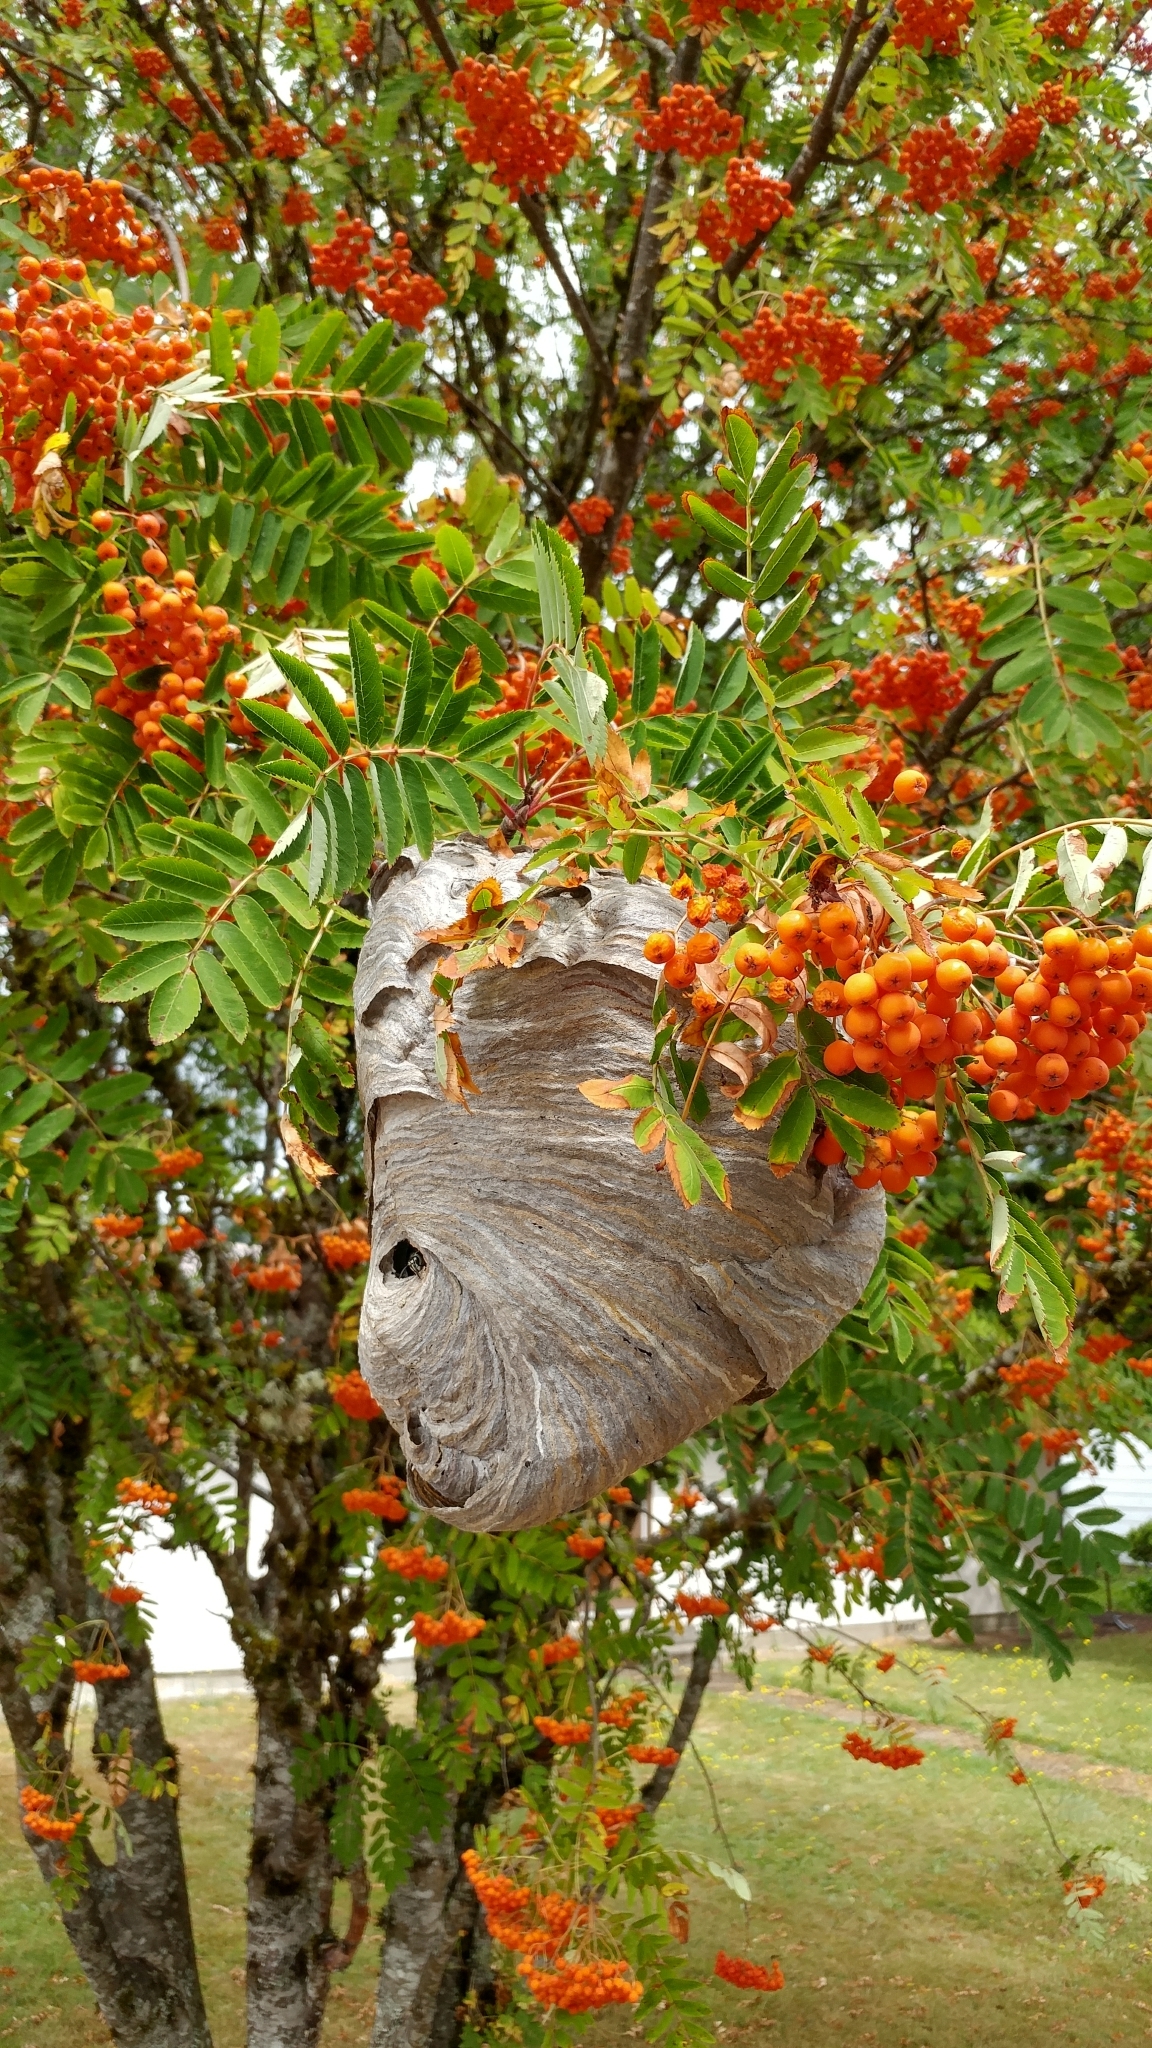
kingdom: Animalia
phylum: Arthropoda
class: Insecta
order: Hymenoptera
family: Vespidae
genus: Dolichovespula
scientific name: Dolichovespula maculata
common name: Bald-faced hornet
